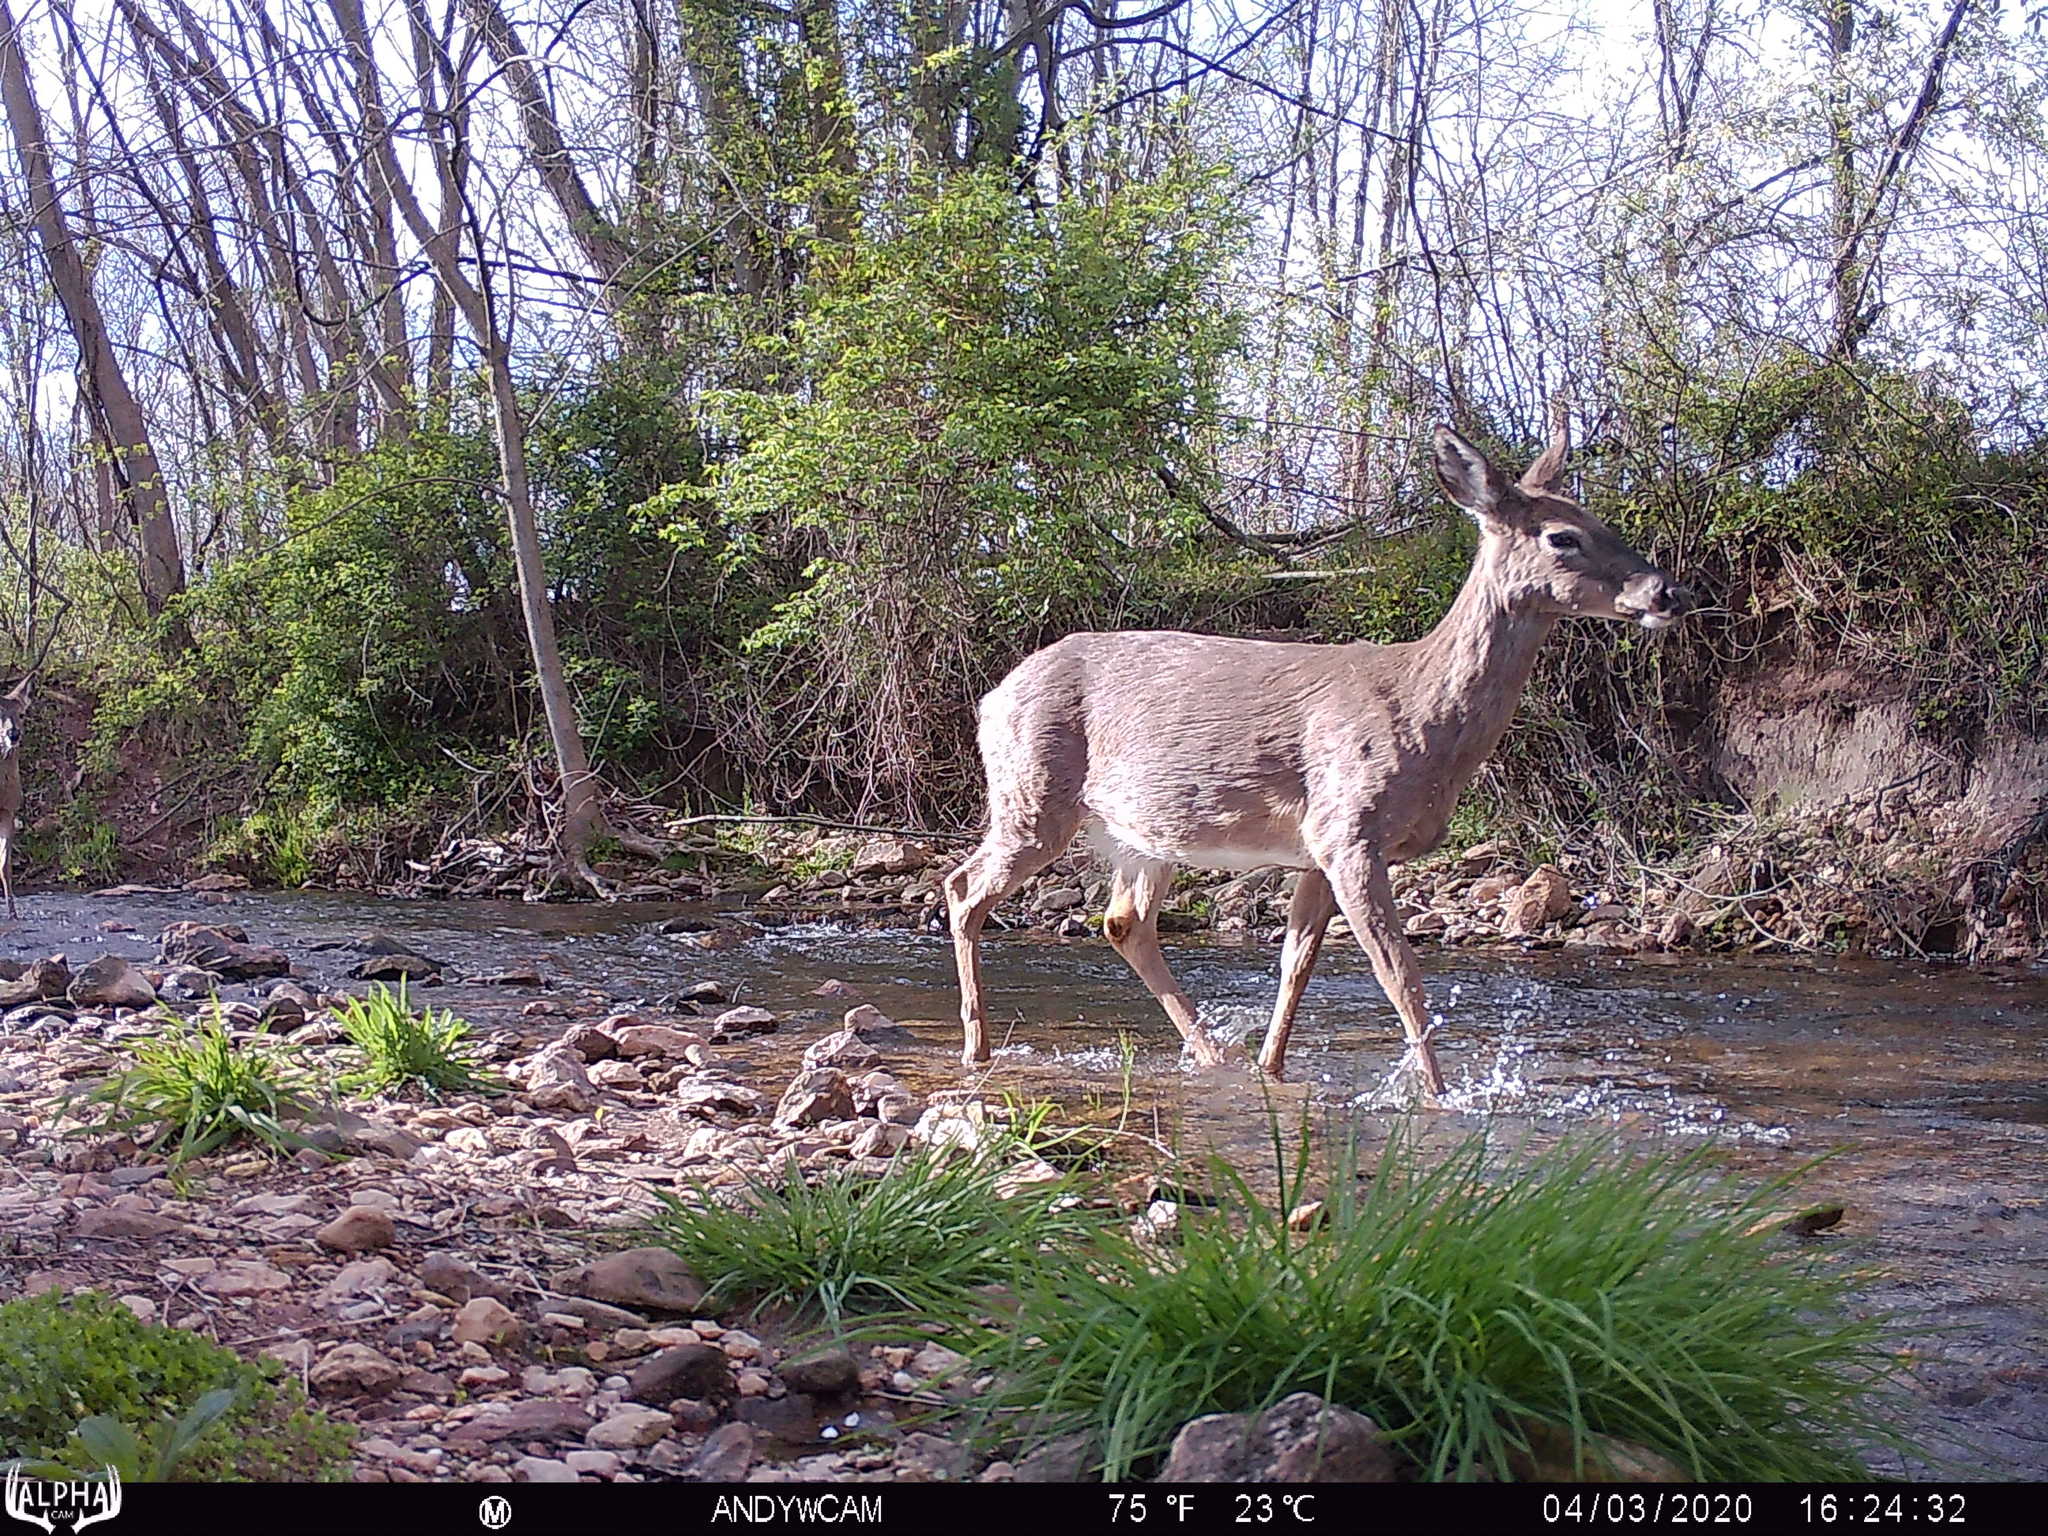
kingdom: Animalia
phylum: Chordata
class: Mammalia
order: Artiodactyla
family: Cervidae
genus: Odocoileus
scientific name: Odocoileus virginianus
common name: White-tailed deer
